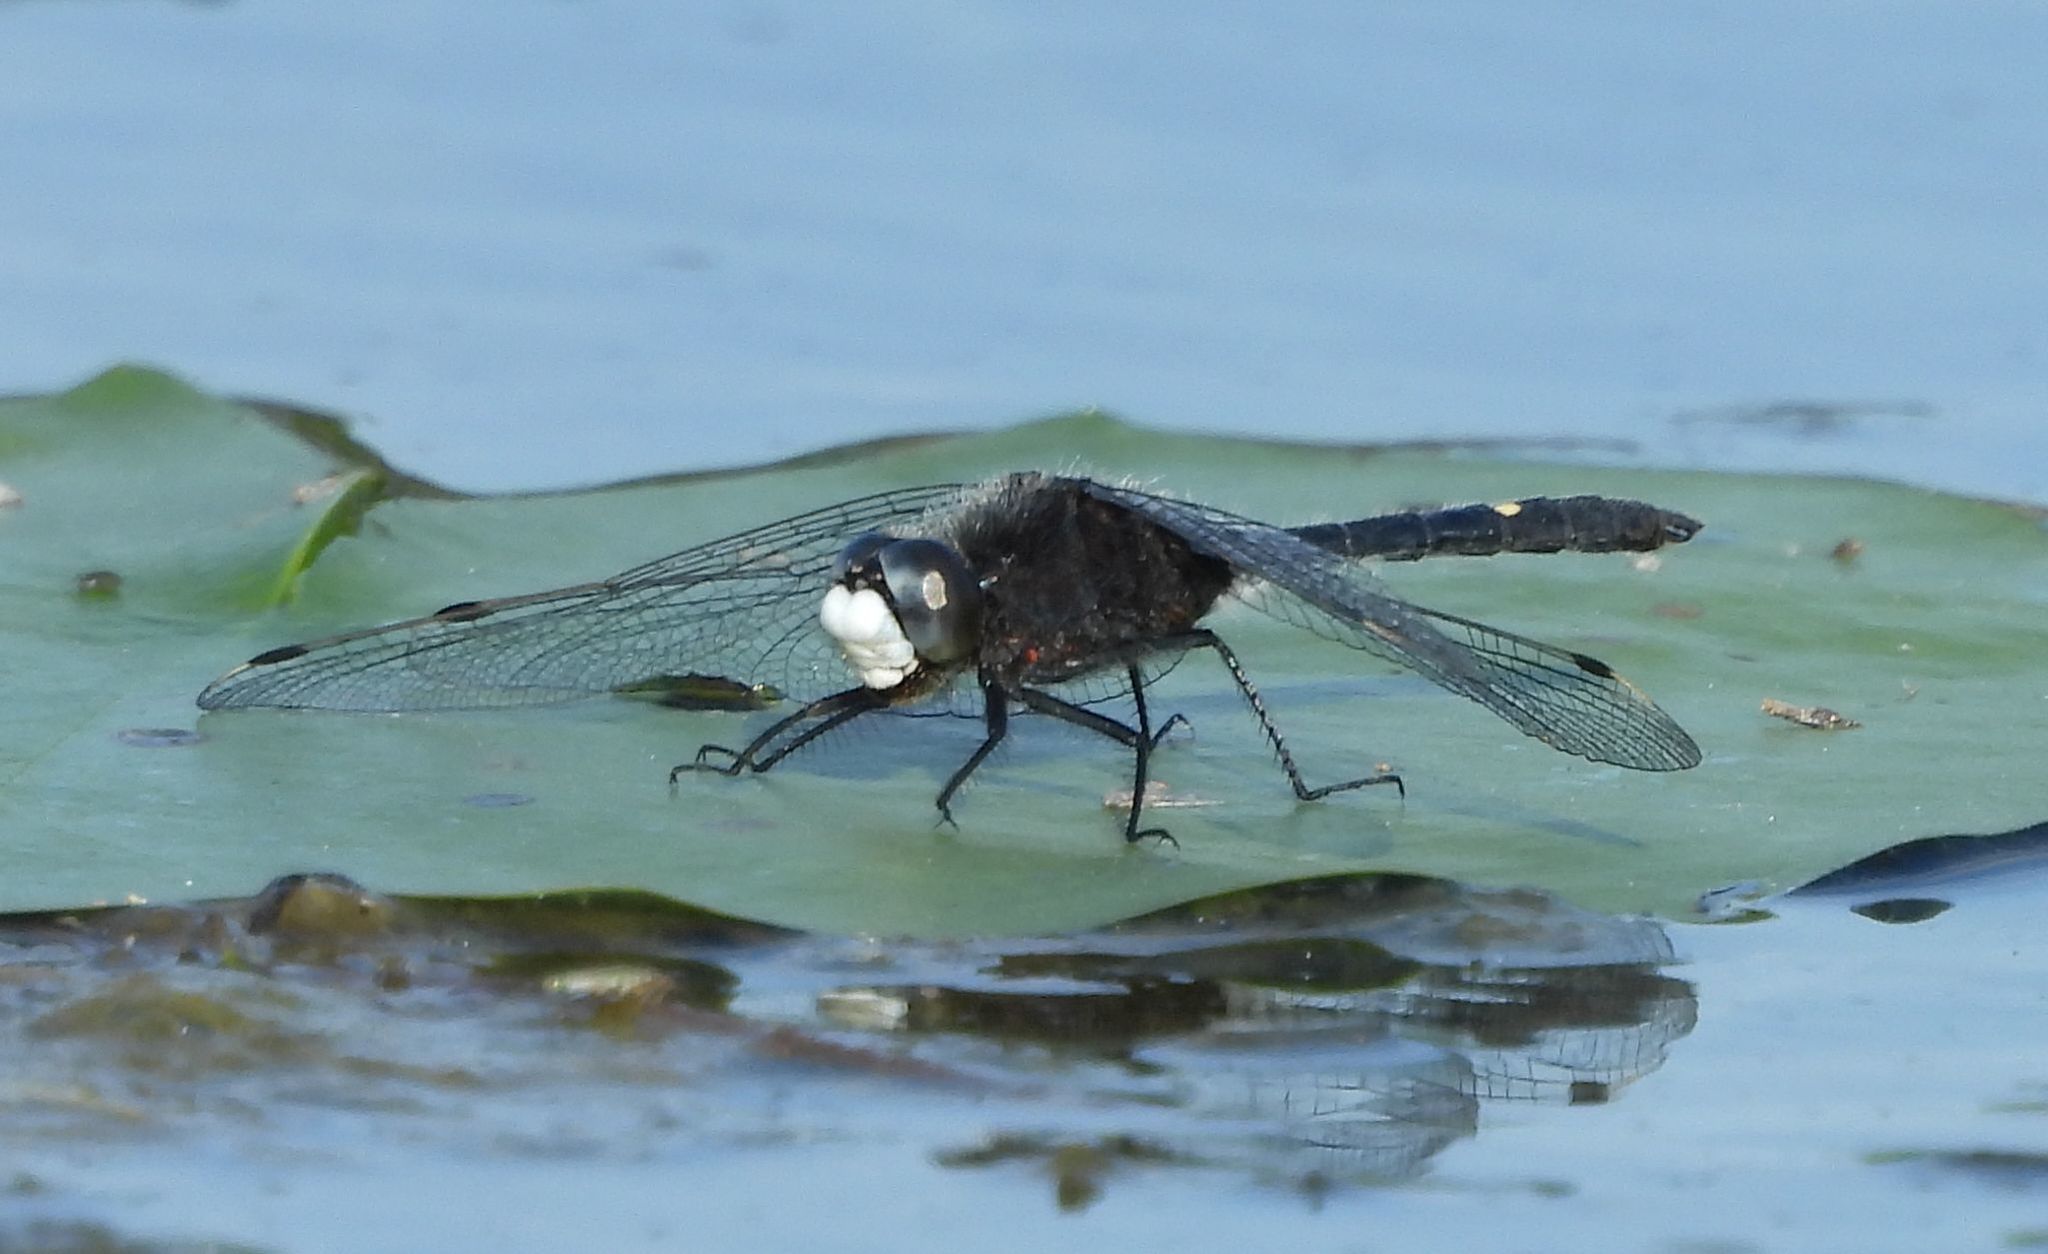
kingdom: Animalia
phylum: Arthropoda
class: Insecta
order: Odonata
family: Libellulidae
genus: Leucorrhinia
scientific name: Leucorrhinia intacta
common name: Dot-tailed whiteface
